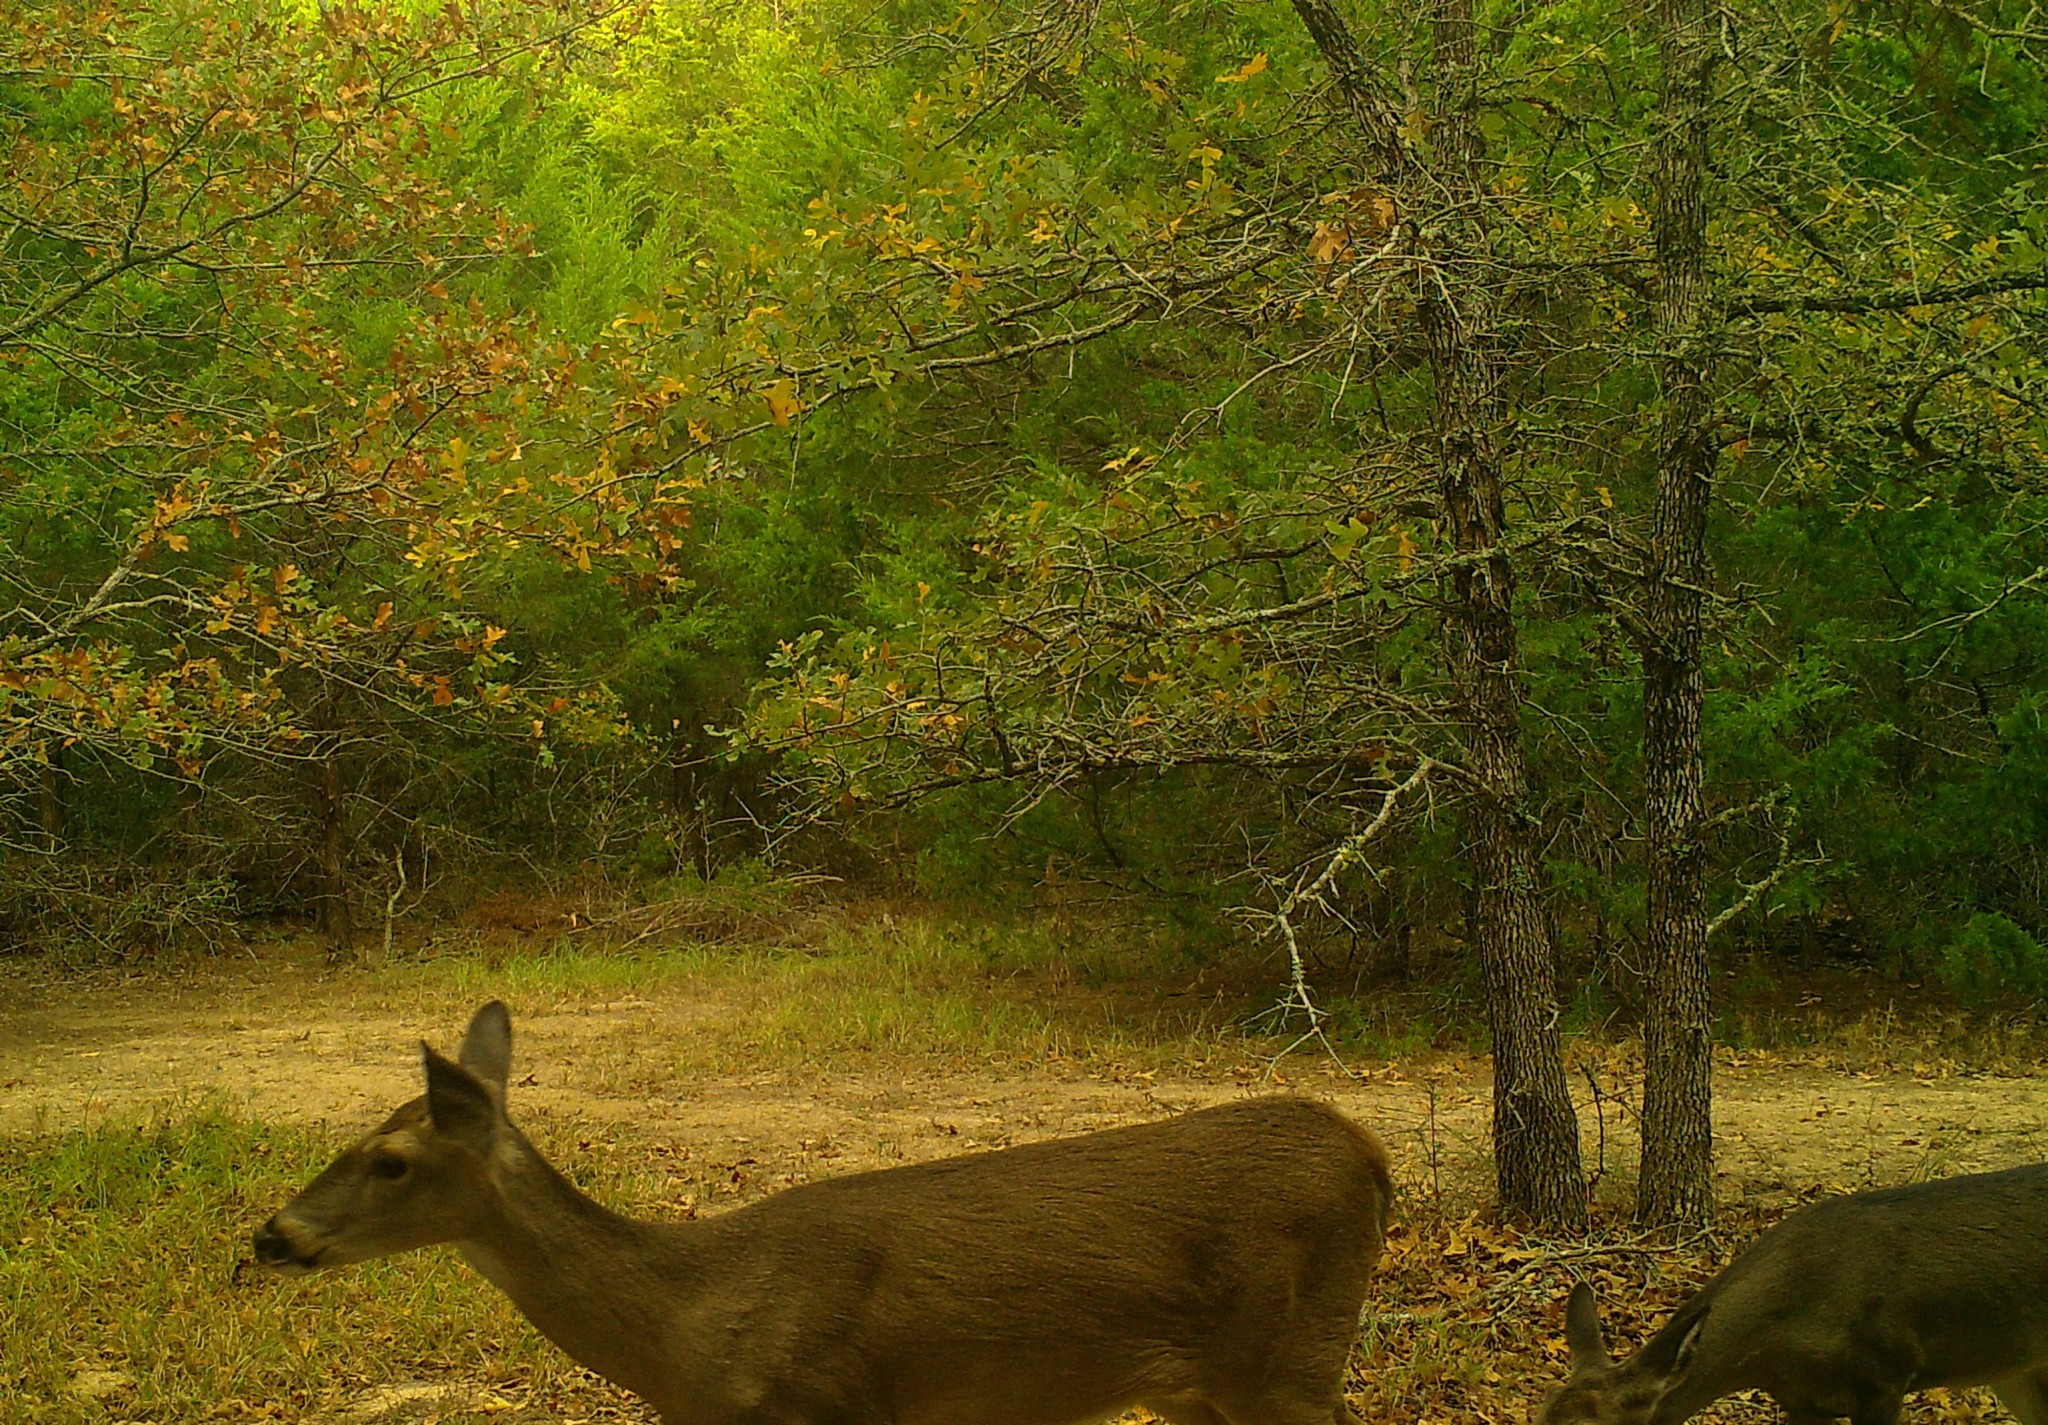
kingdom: Animalia
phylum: Chordata
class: Mammalia
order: Artiodactyla
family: Cervidae
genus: Odocoileus
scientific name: Odocoileus virginianus
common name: White-tailed deer
